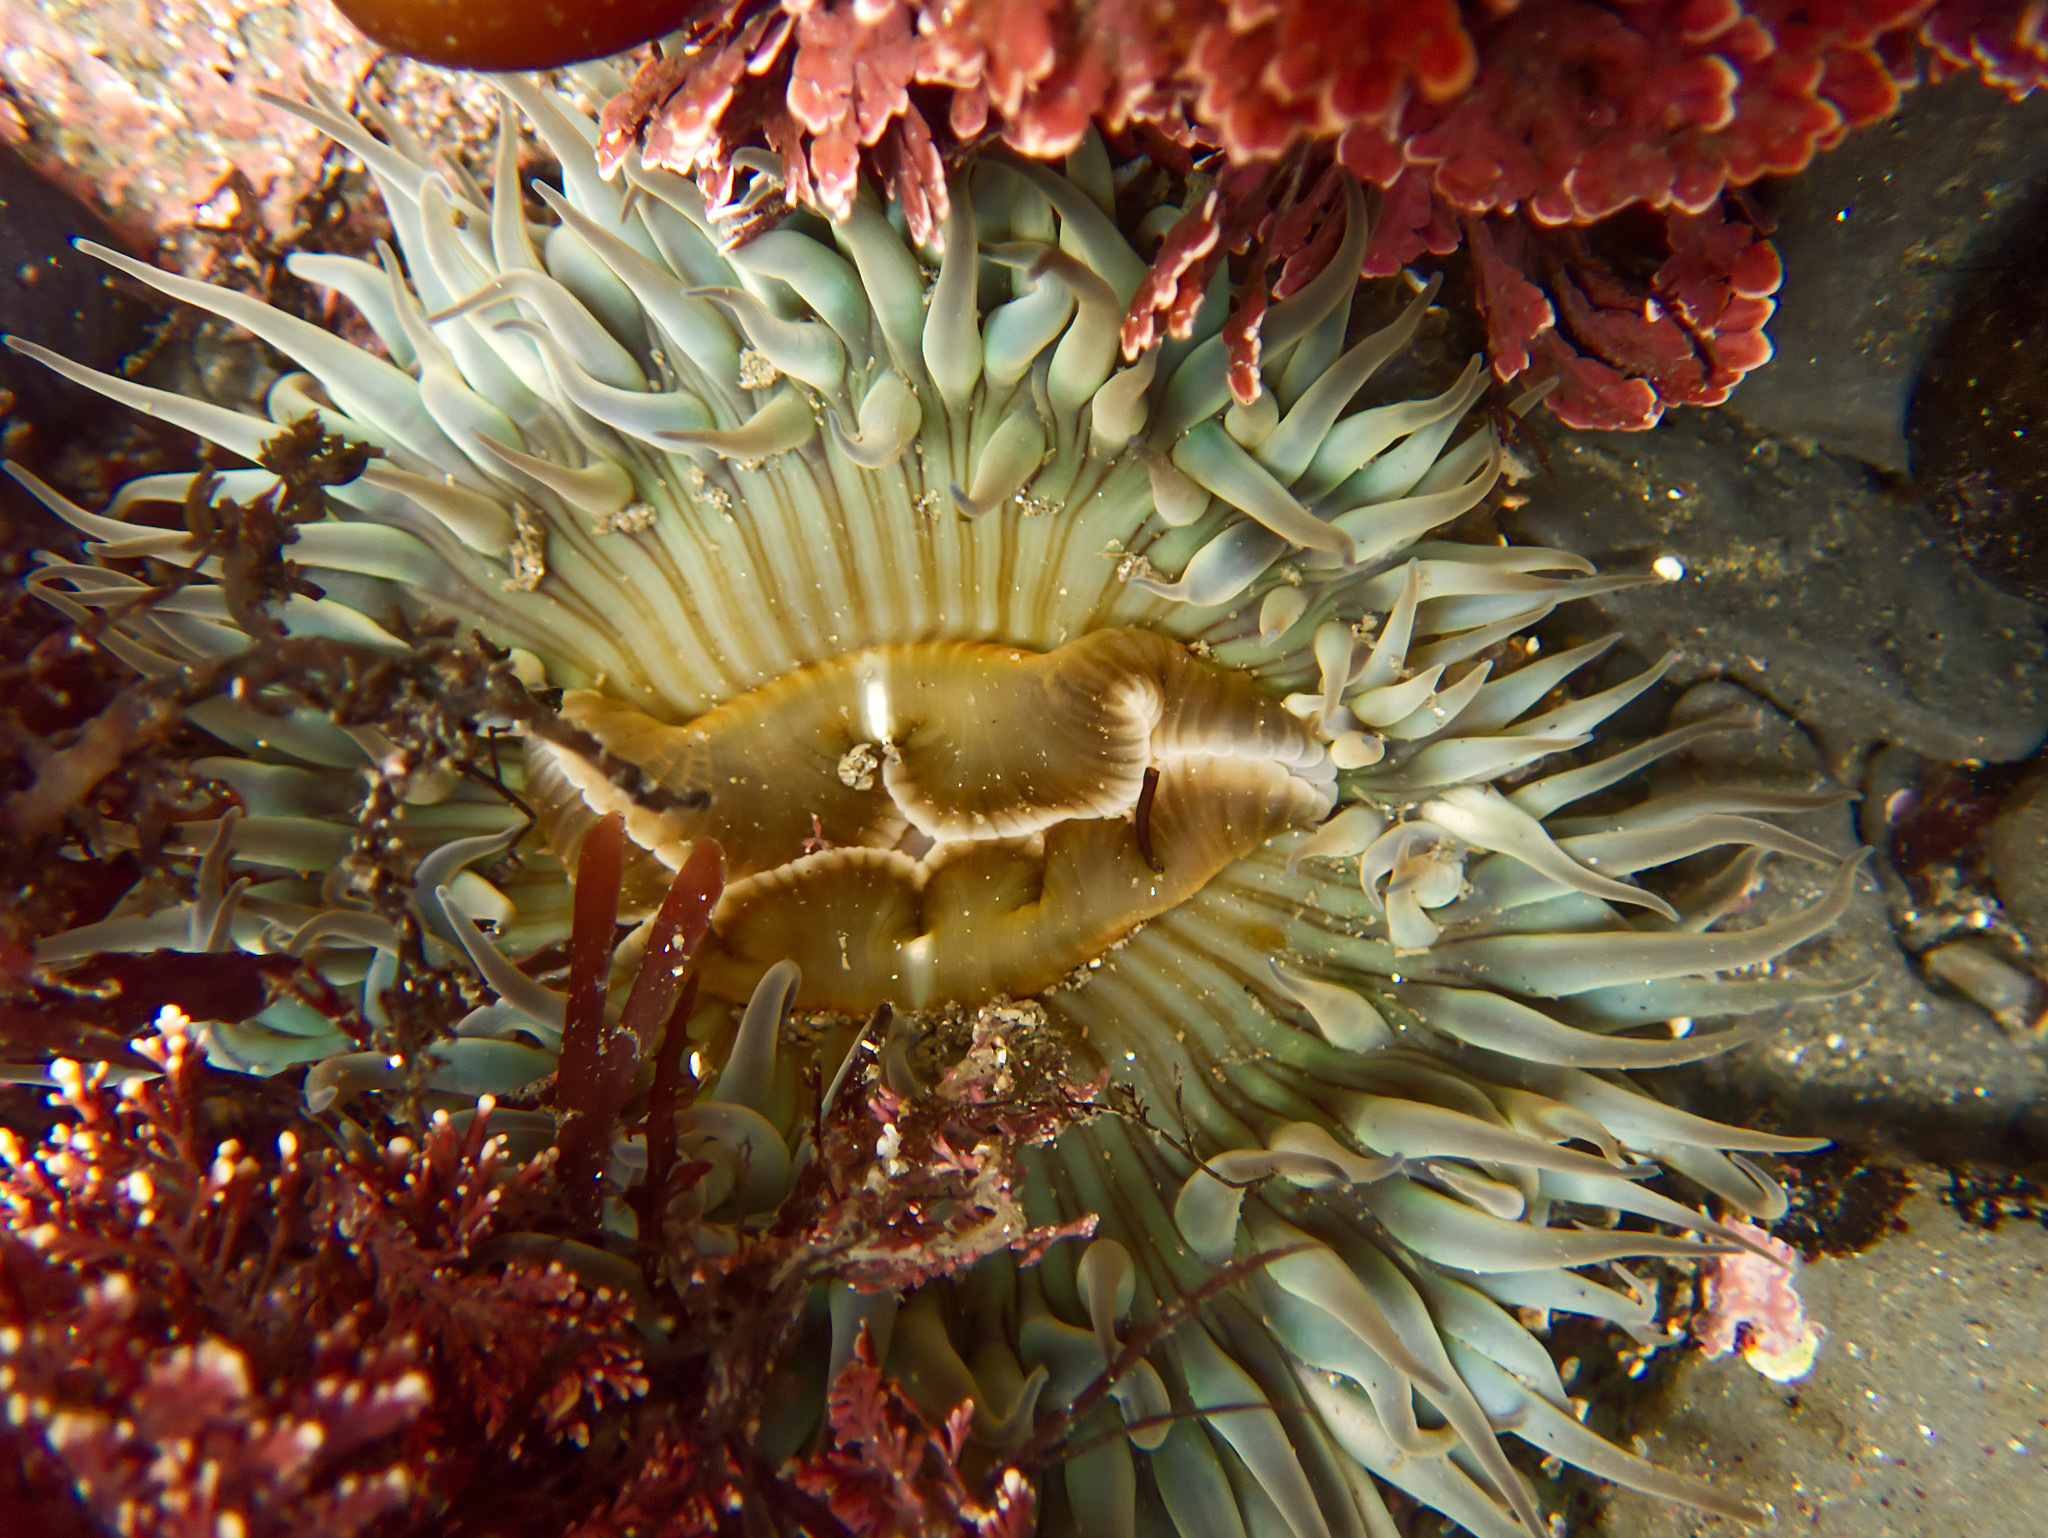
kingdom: Animalia
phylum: Cnidaria
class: Anthozoa
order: Actiniaria
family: Actiniidae
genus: Anthopleura
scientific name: Anthopleura sola
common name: Sun anemone
